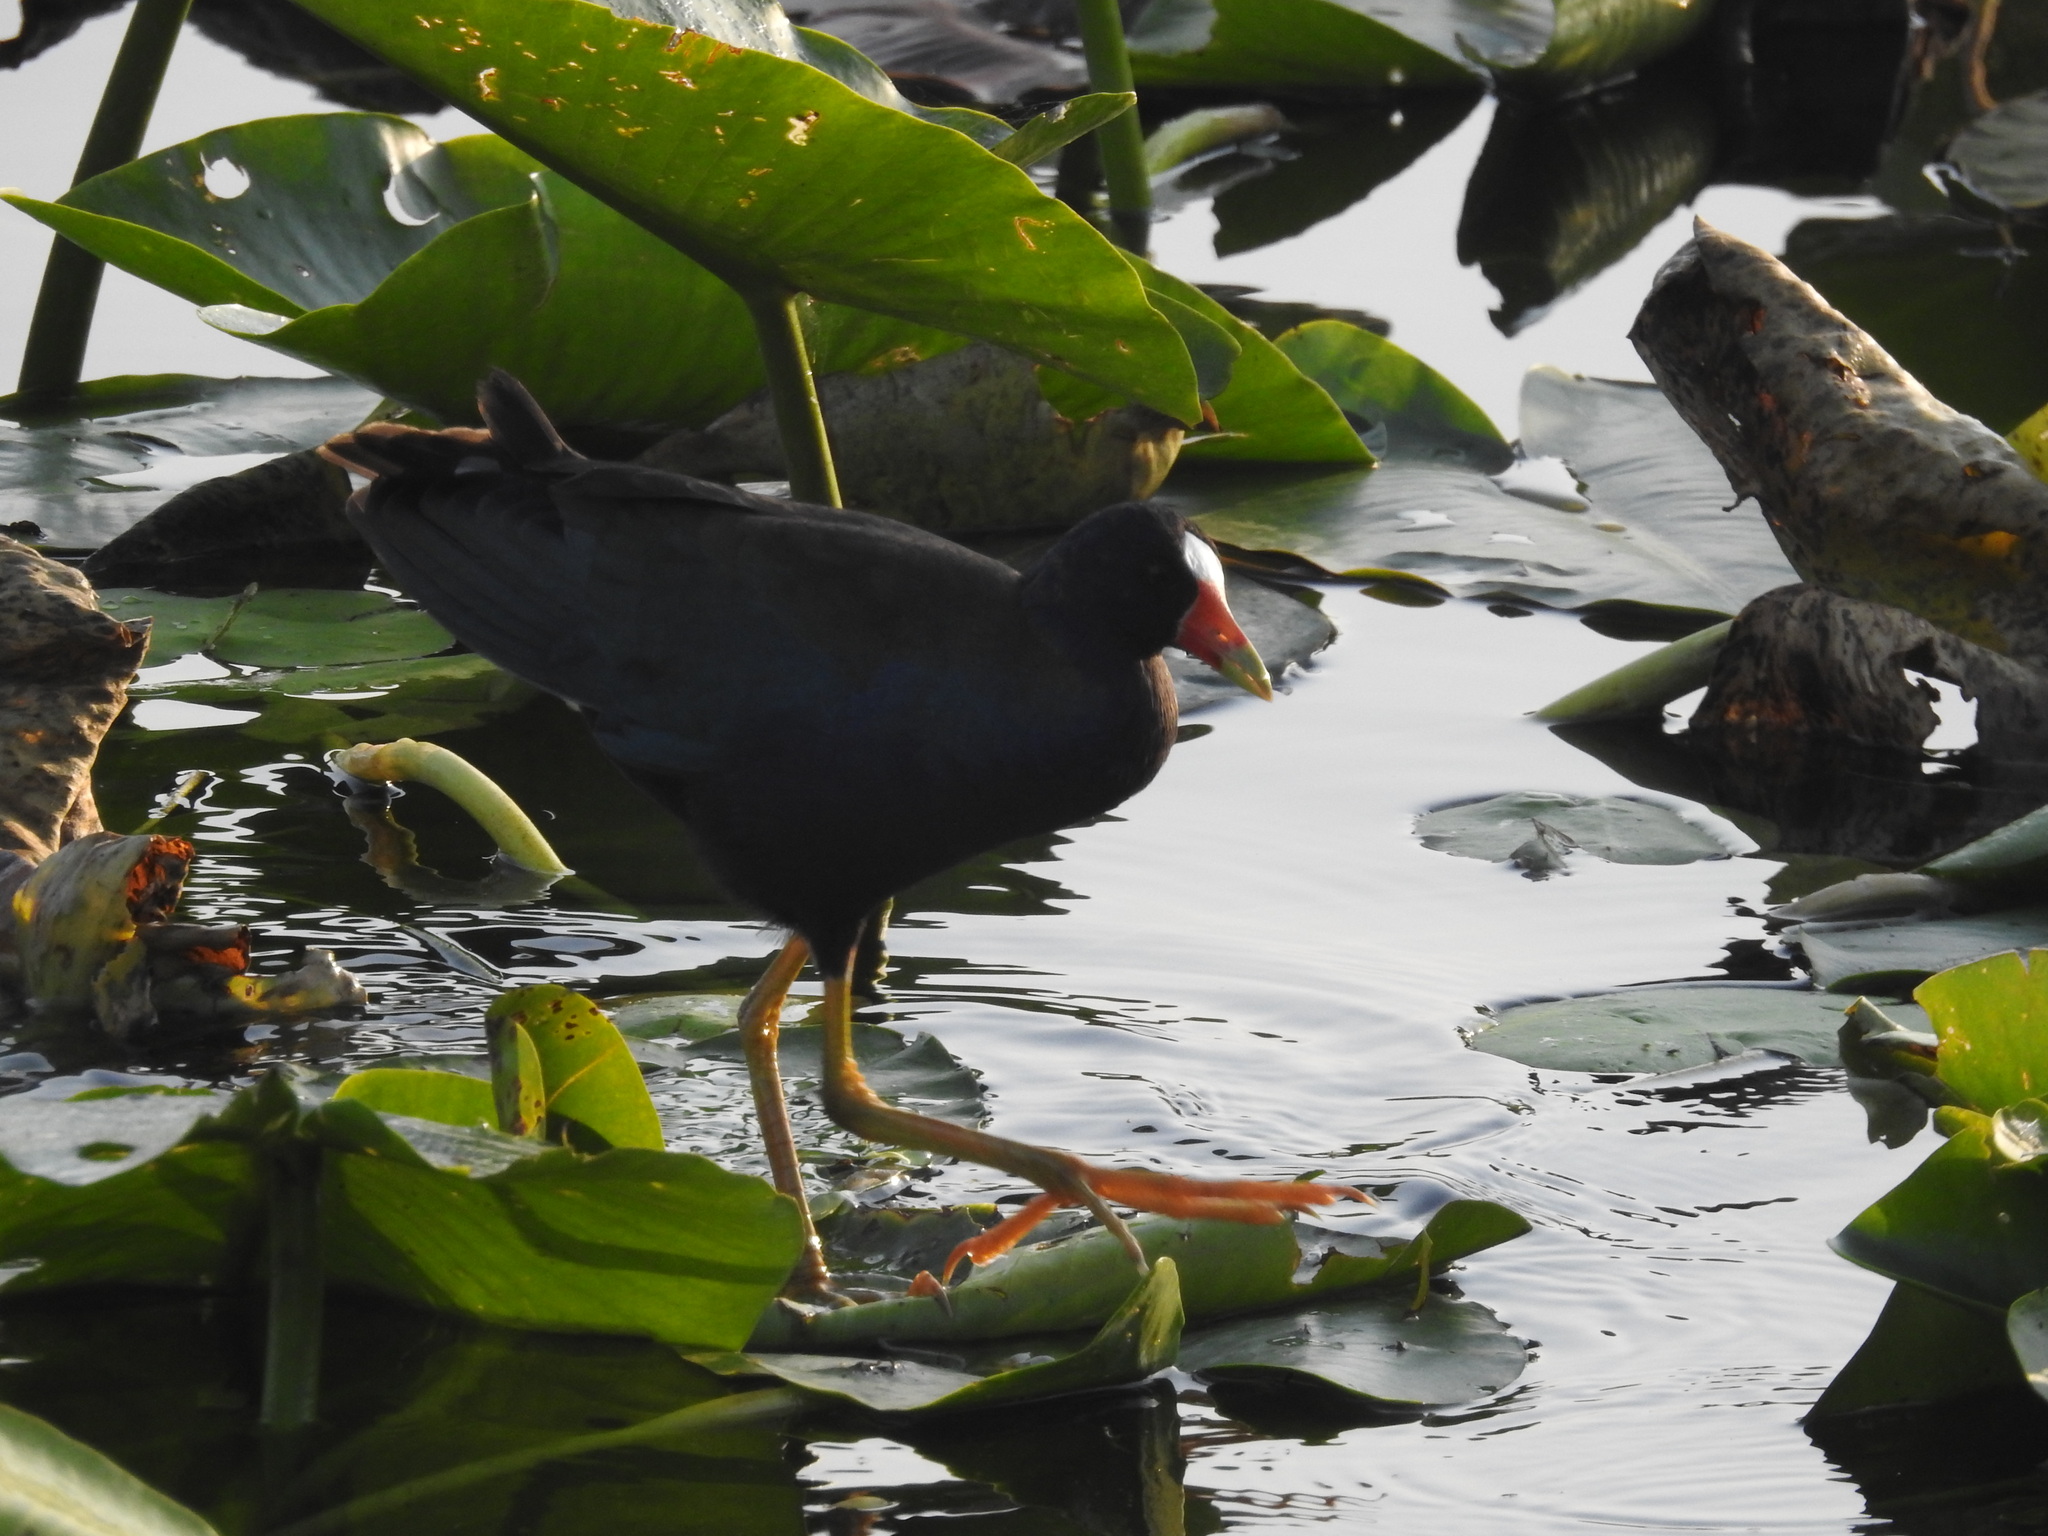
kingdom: Animalia
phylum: Chordata
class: Aves
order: Gruiformes
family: Rallidae
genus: Porphyrio
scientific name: Porphyrio martinica
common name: Purple gallinule
